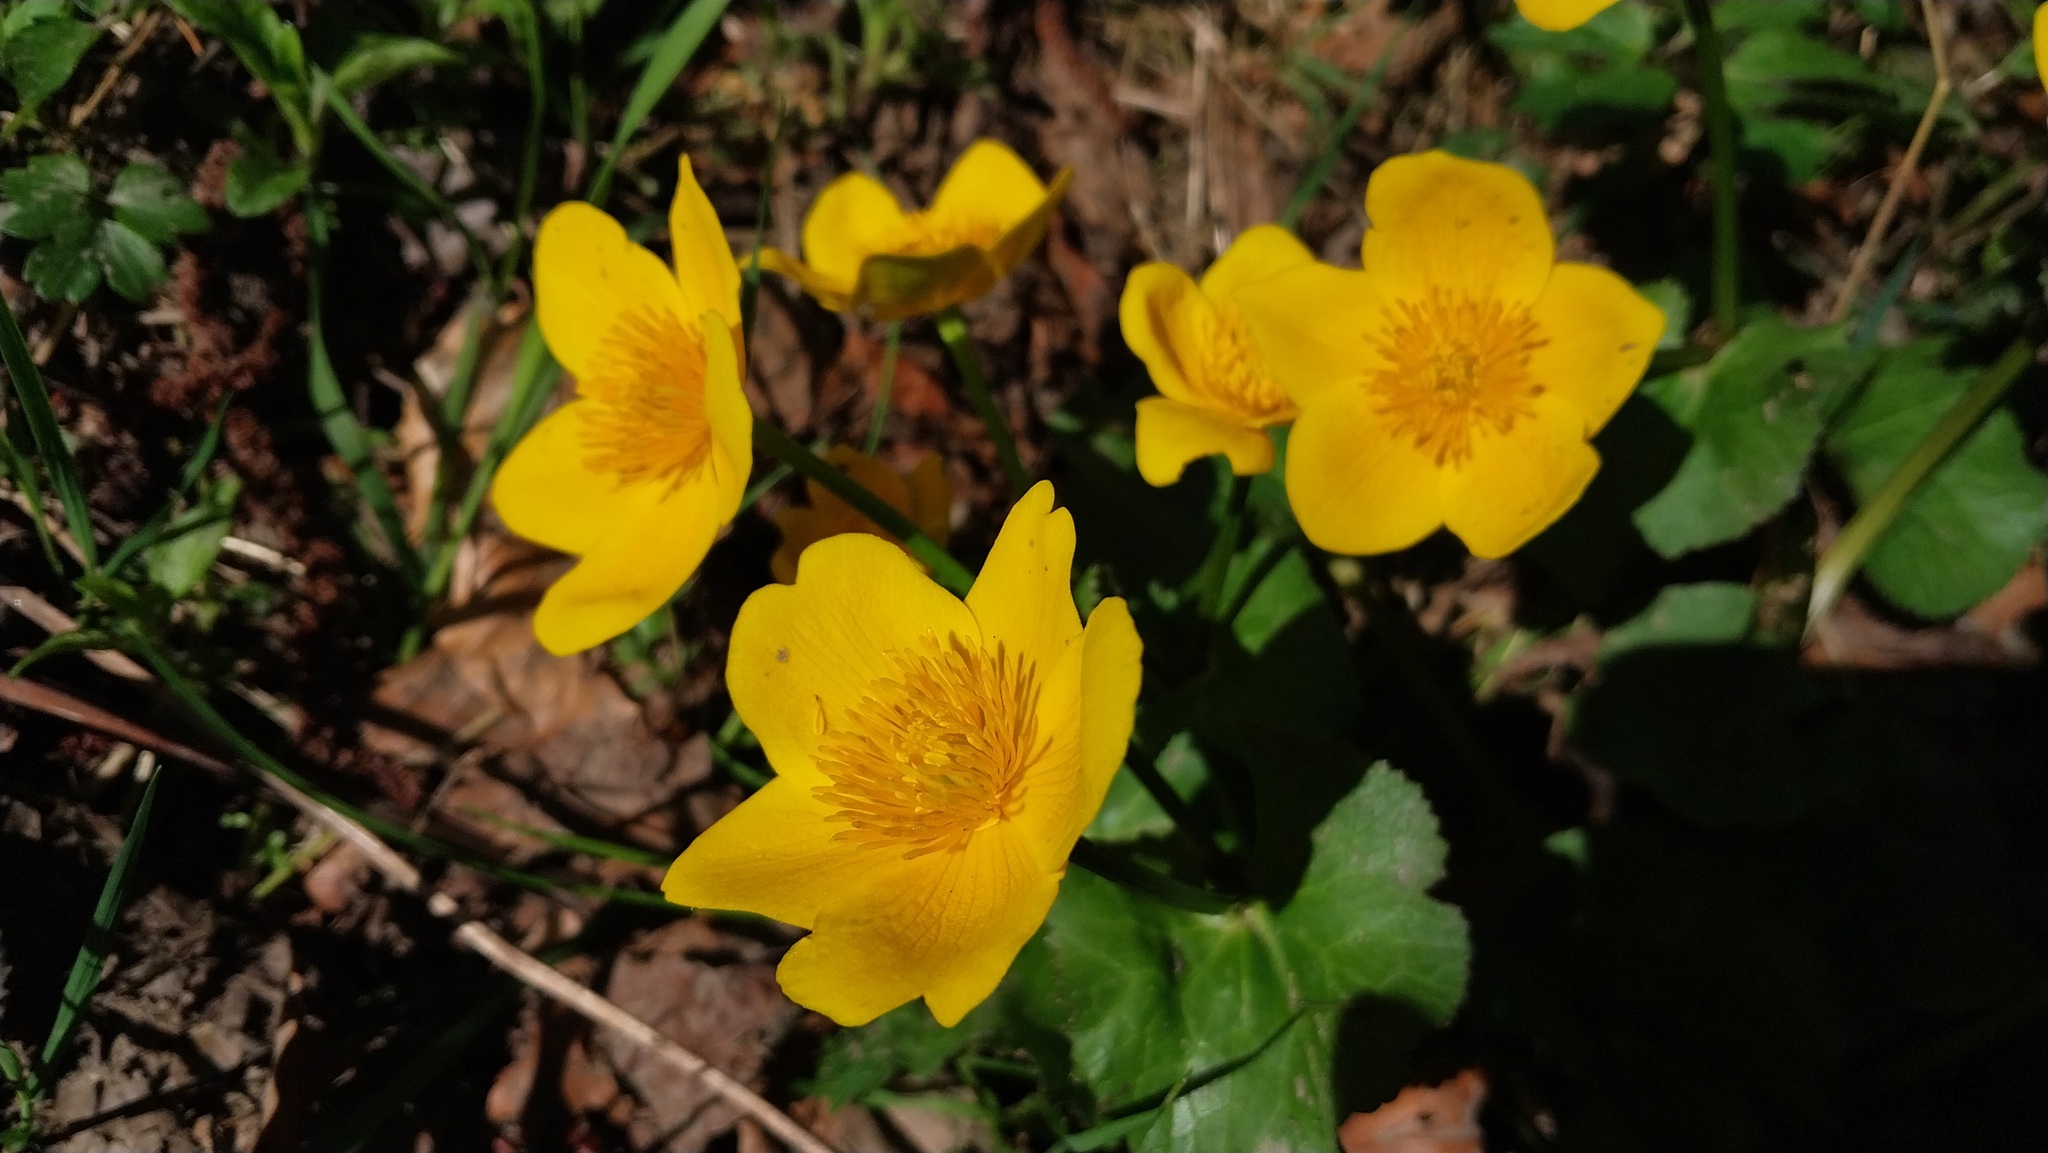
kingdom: Plantae
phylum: Tracheophyta
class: Magnoliopsida
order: Ranunculales
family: Ranunculaceae
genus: Caltha
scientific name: Caltha palustris
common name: Marsh marigold
